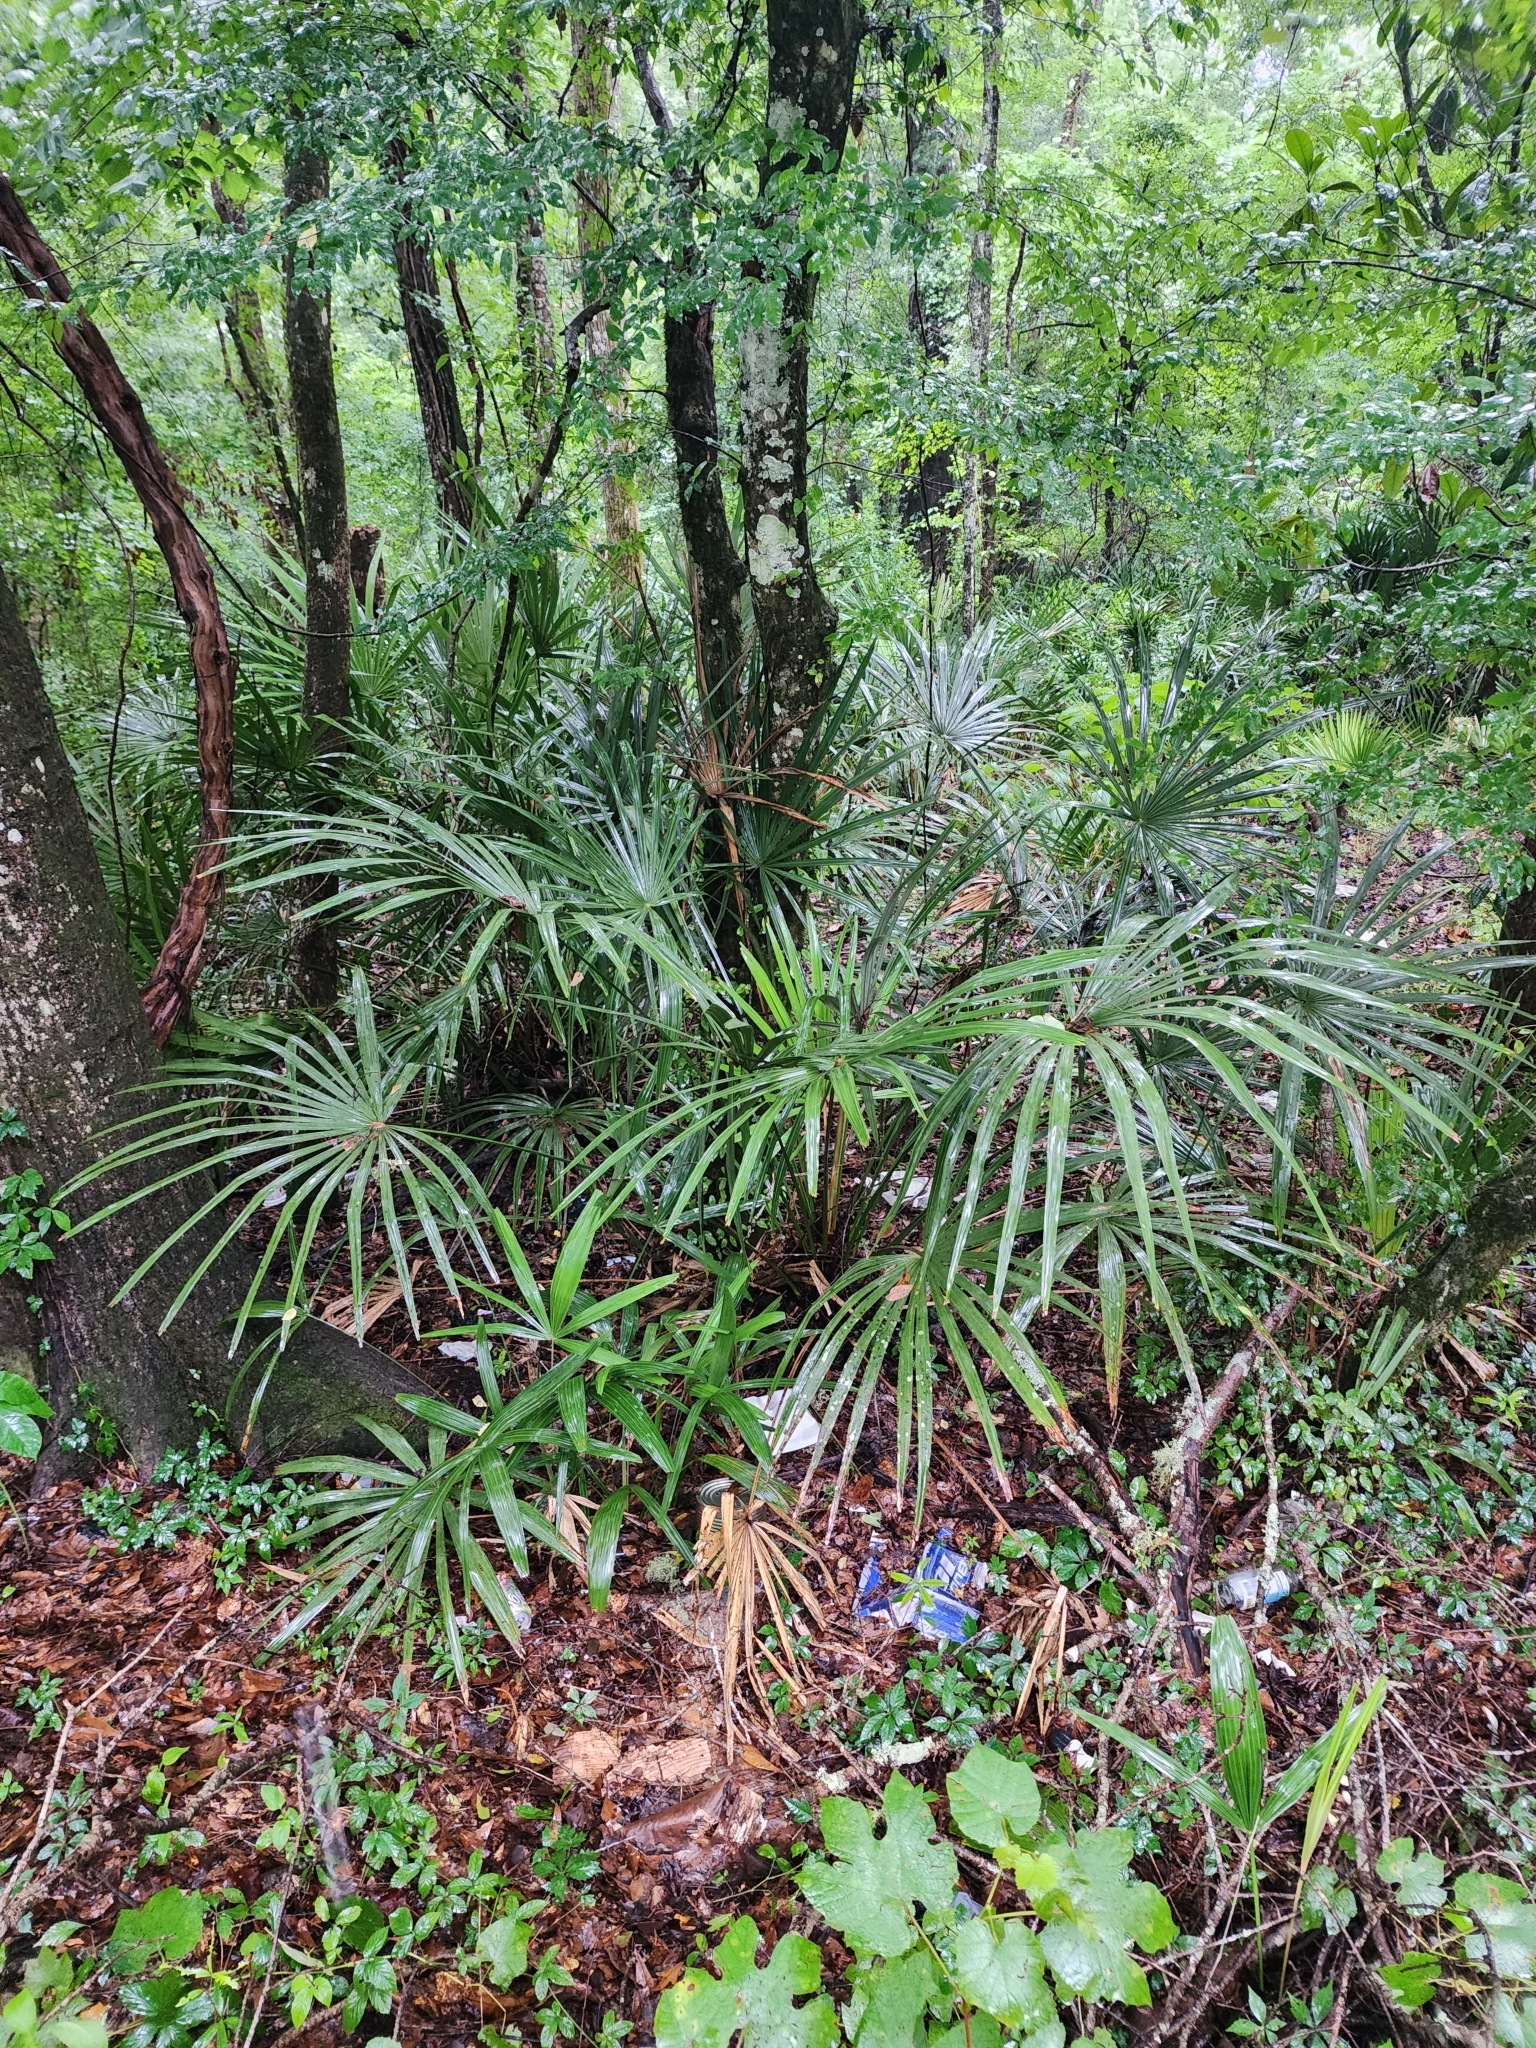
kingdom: Plantae
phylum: Tracheophyta
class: Liliopsida
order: Arecales
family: Arecaceae
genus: Rhapidophyllum
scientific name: Rhapidophyllum hystrix
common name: Porcupine palm
